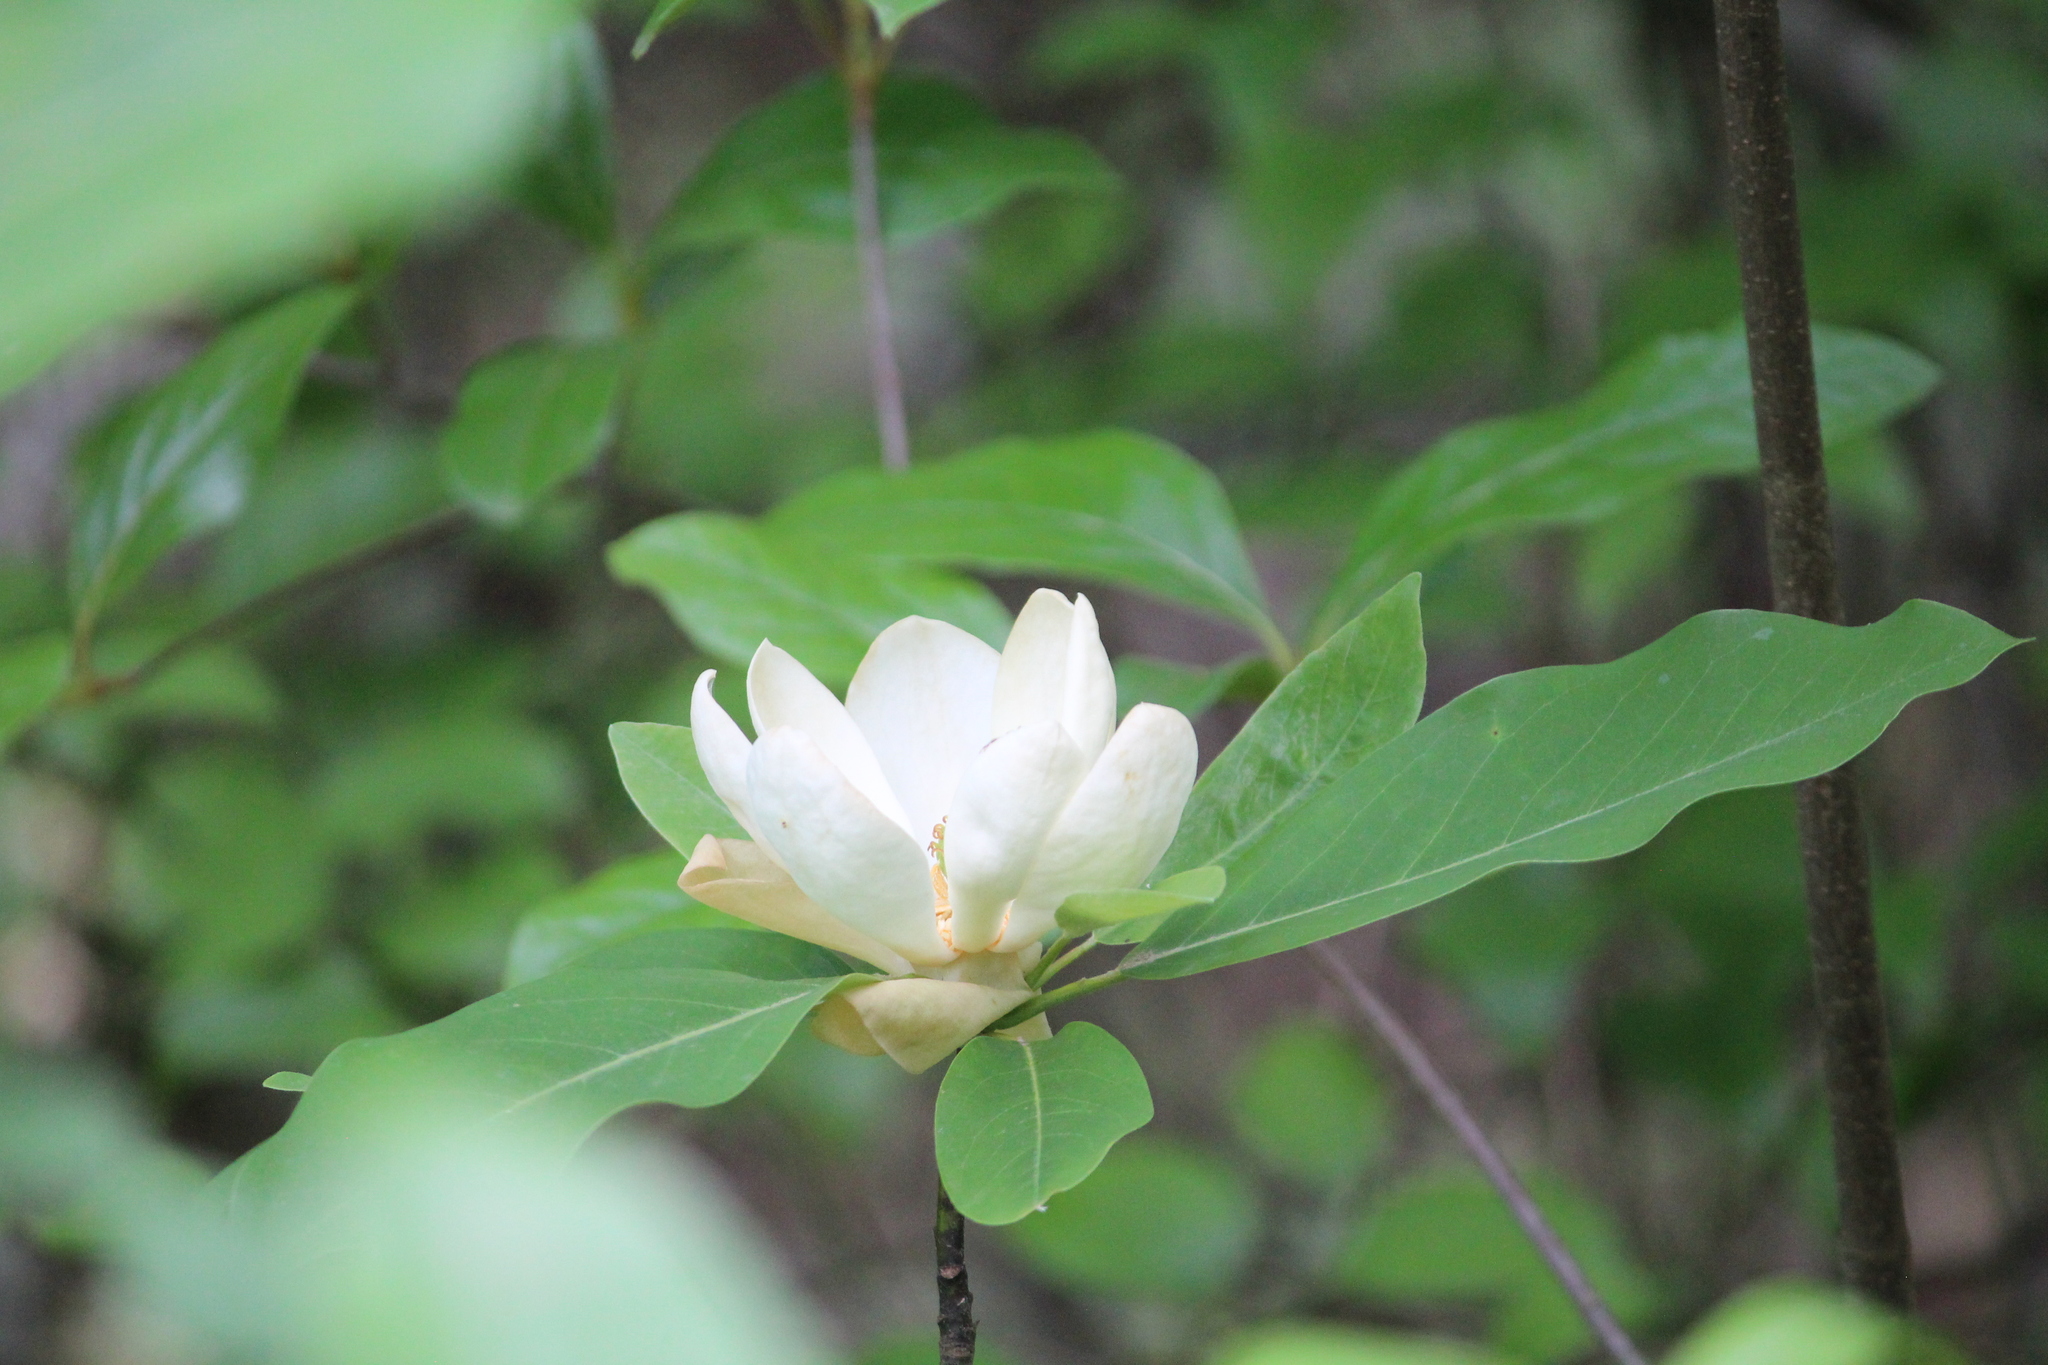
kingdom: Plantae
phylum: Tracheophyta
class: Magnoliopsida
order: Magnoliales
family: Magnoliaceae
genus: Magnolia
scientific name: Magnolia virginiana
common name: Swamp bay
